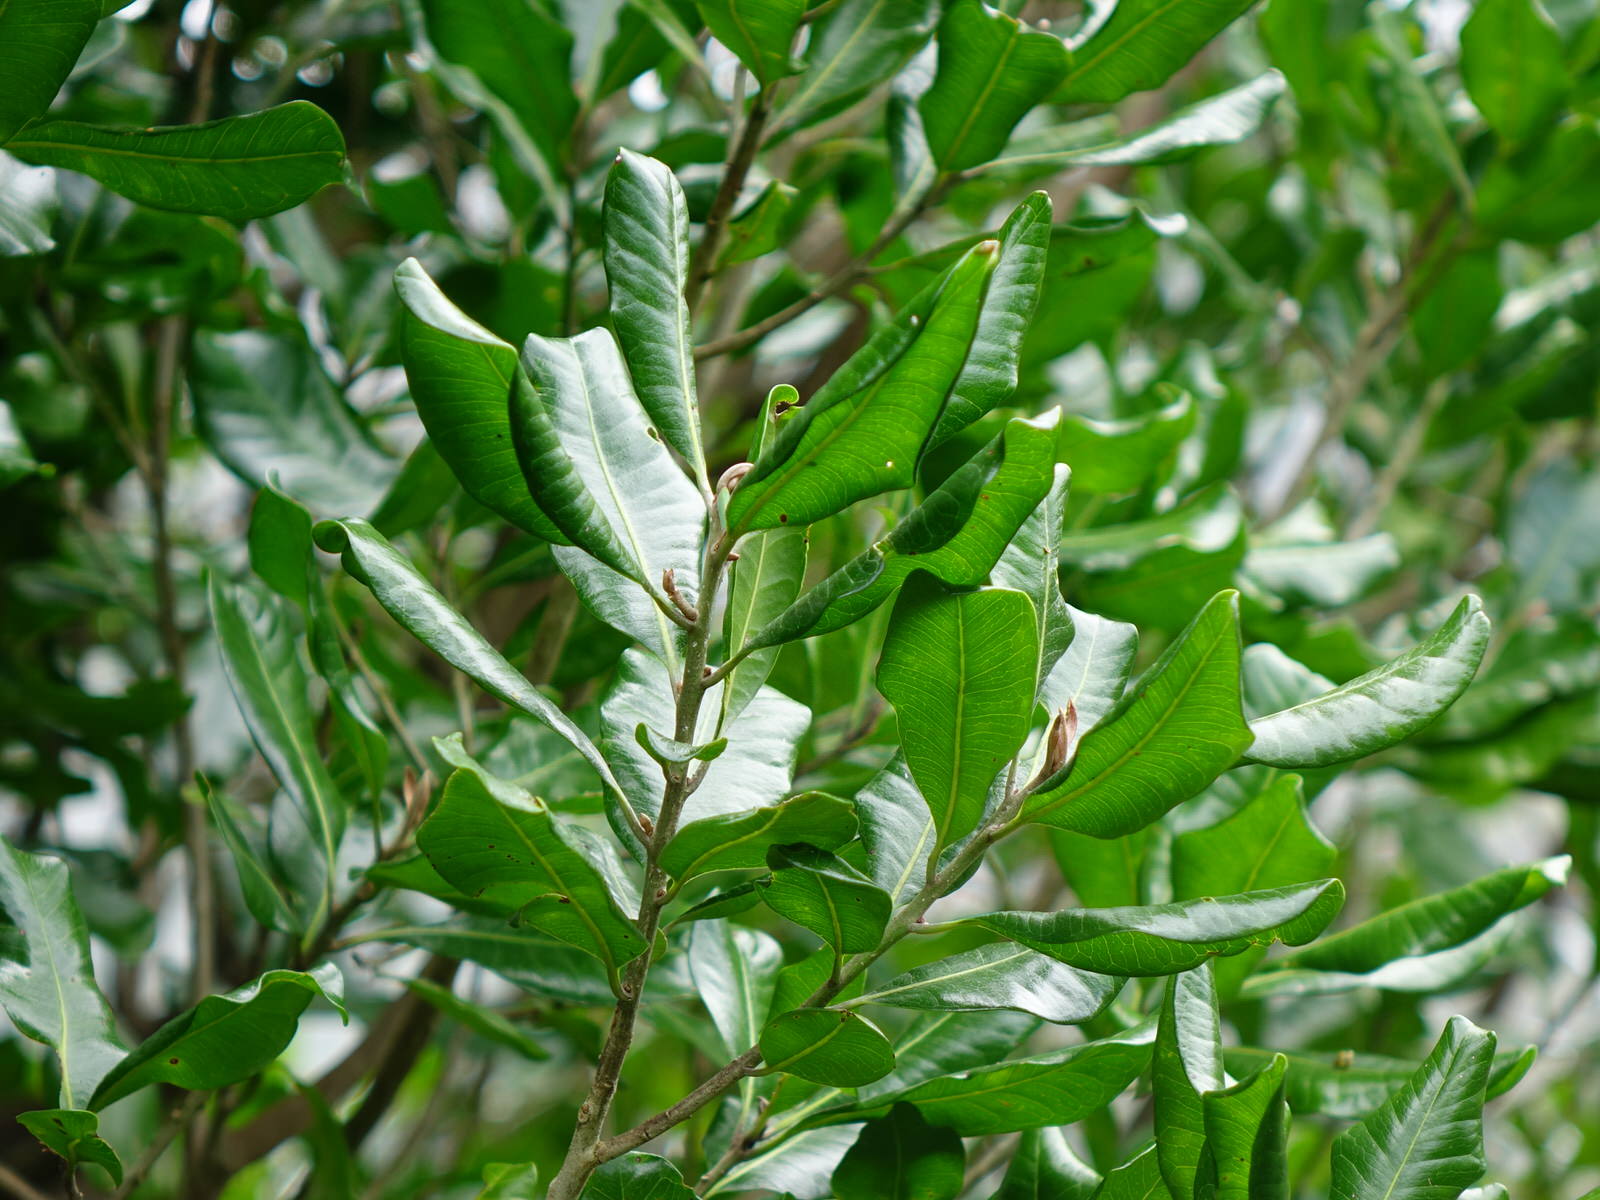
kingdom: Plantae
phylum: Tracheophyta
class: Magnoliopsida
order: Ericales
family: Sapotaceae
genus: Planchonella
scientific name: Planchonella costata
